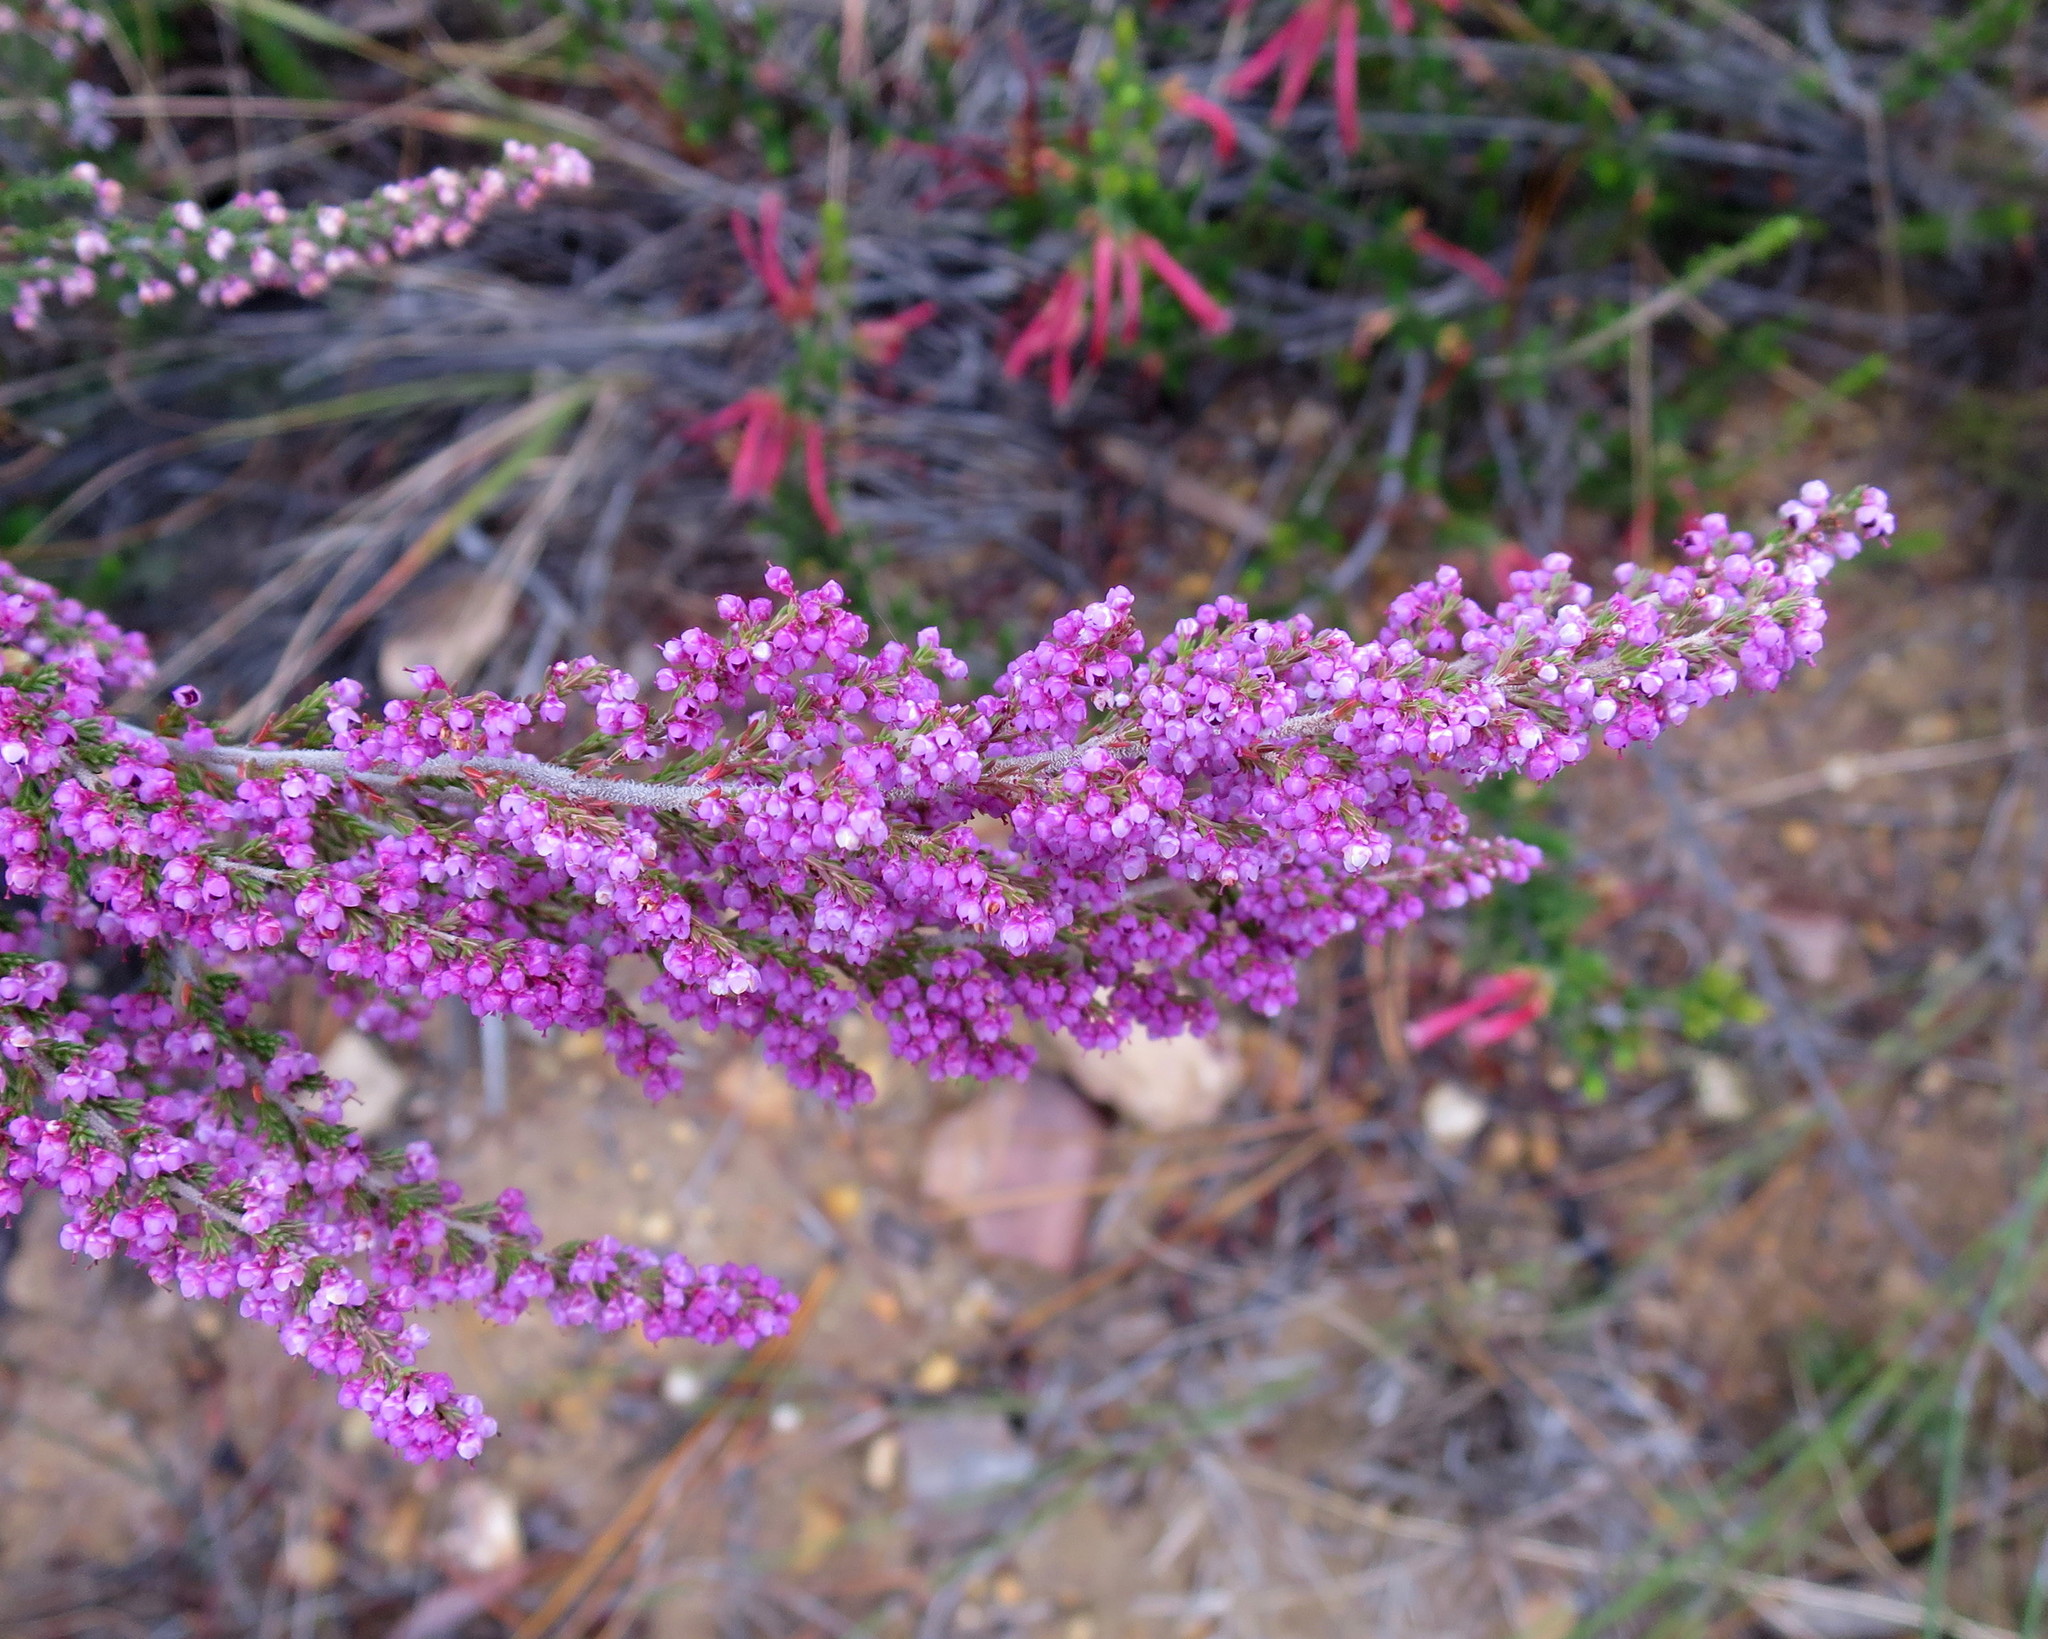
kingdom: Plantae
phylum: Tracheophyta
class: Magnoliopsida
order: Ericales
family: Ericaceae
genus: Erica
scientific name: Erica sparsa
